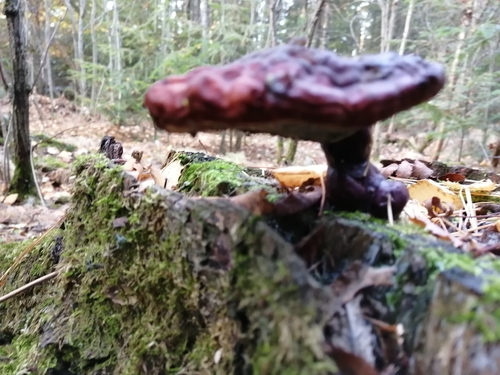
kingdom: Fungi
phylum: Basidiomycota
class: Agaricomycetes
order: Polyporales
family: Polyporaceae
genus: Ganoderma
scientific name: Ganoderma lucidum
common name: Lacquered bracket
